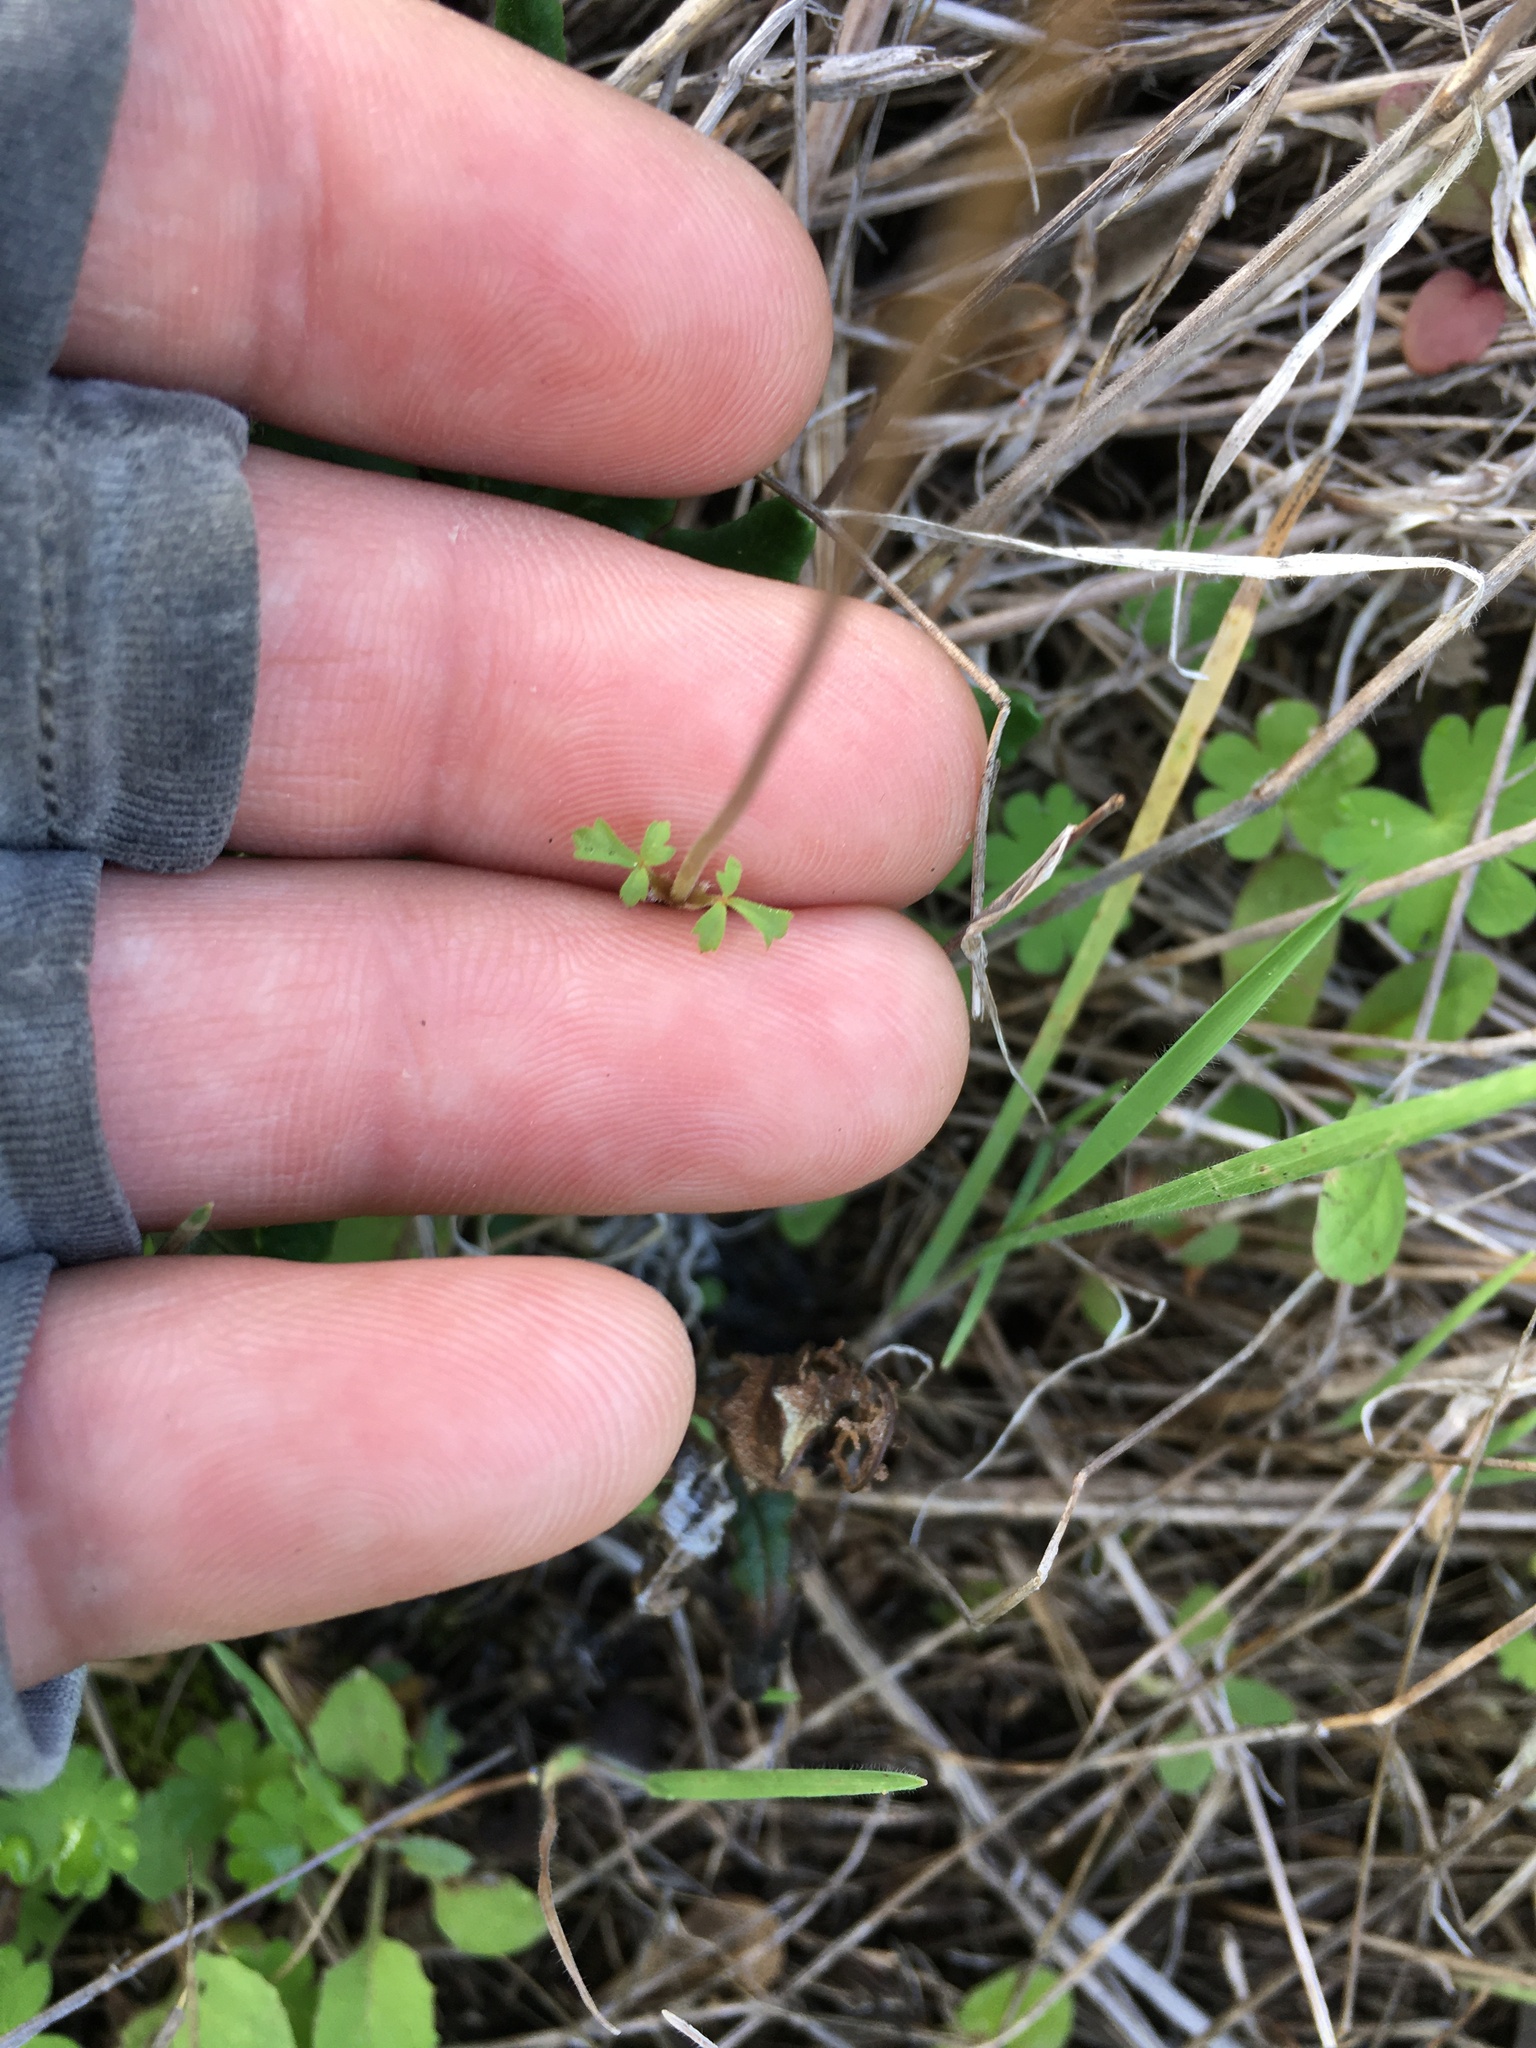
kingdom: Plantae
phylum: Tracheophyta
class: Magnoliopsida
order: Saxifragales
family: Saxifragaceae
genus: Lithophragma
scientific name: Lithophragma cymbalaria
